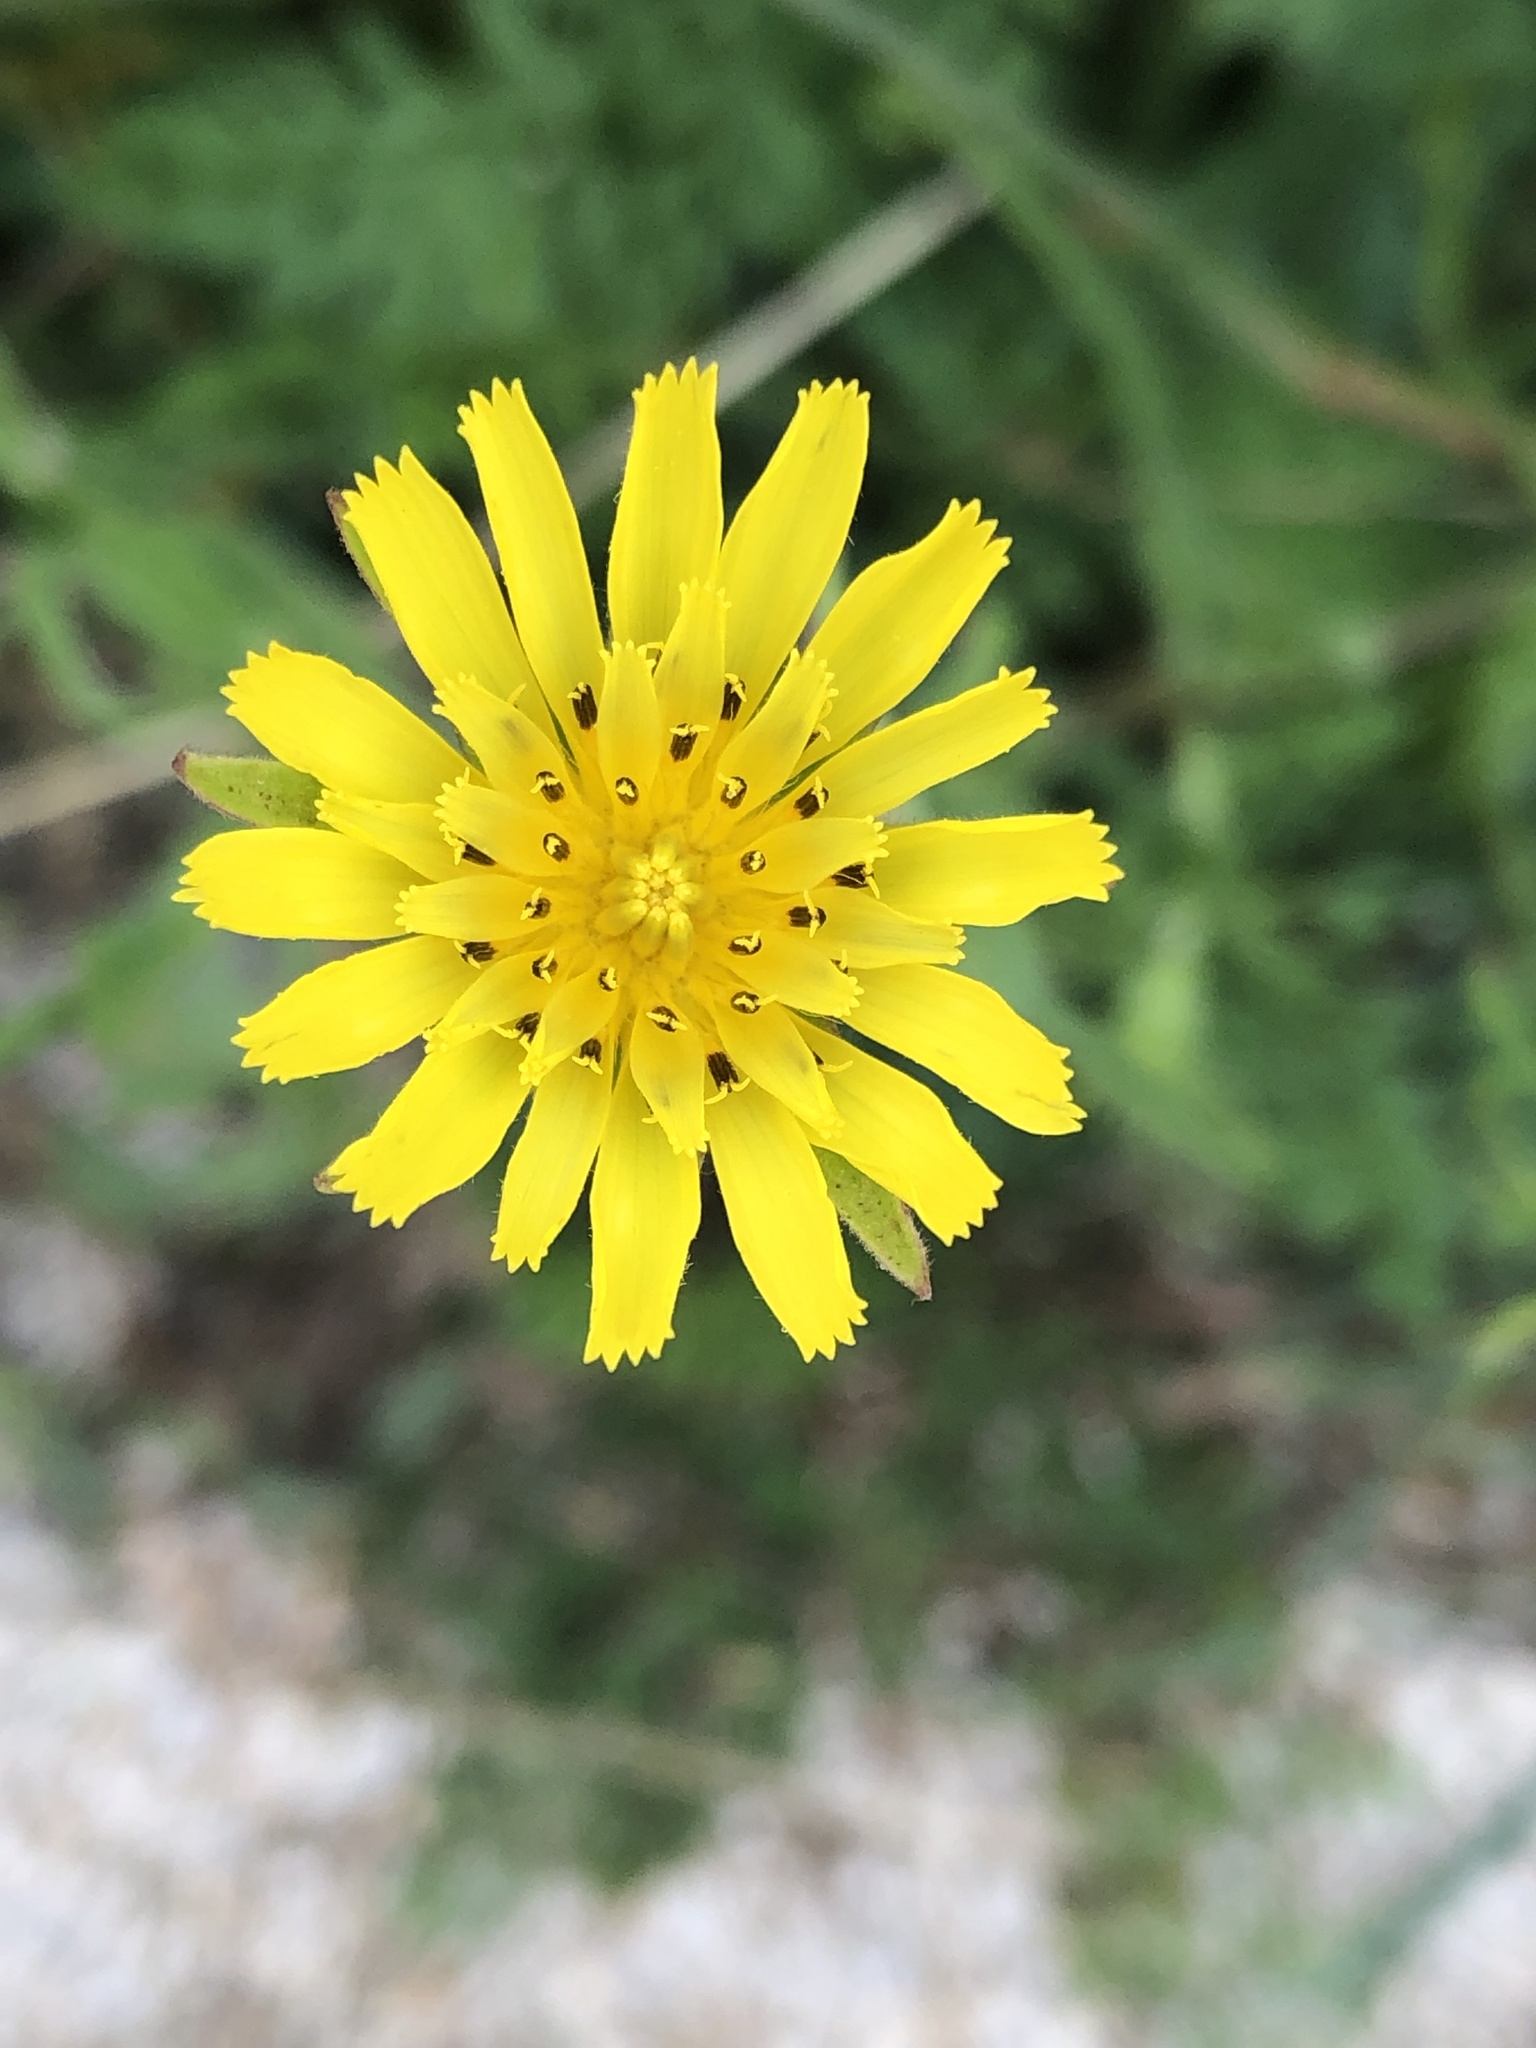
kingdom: Plantae
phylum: Tracheophyta
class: Magnoliopsida
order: Asterales
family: Asteraceae
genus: Tragopogon
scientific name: Tragopogon pratensis
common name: Goat's-beard
